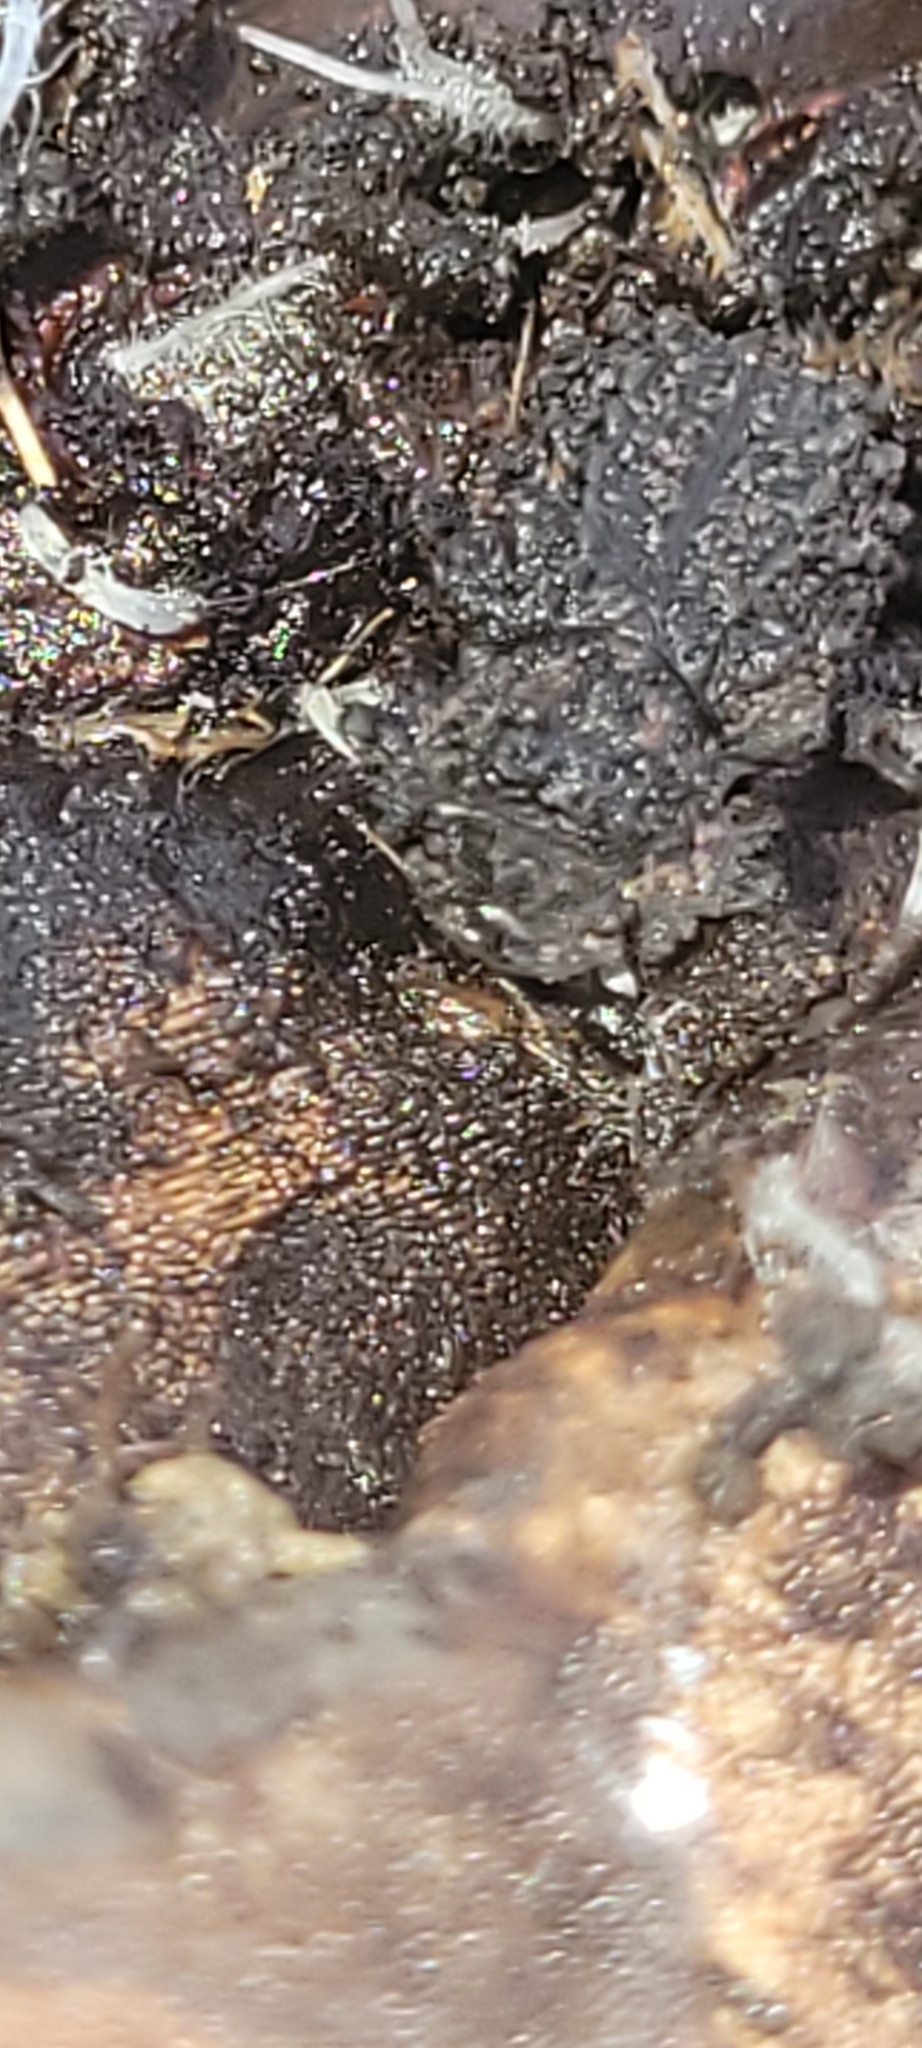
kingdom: Animalia
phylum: Arthropoda
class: Insecta
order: Coleoptera
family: Tenebrionidae
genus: Gnatocerus
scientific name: Gnatocerus cornutus
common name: Broad-horned flour beetle
